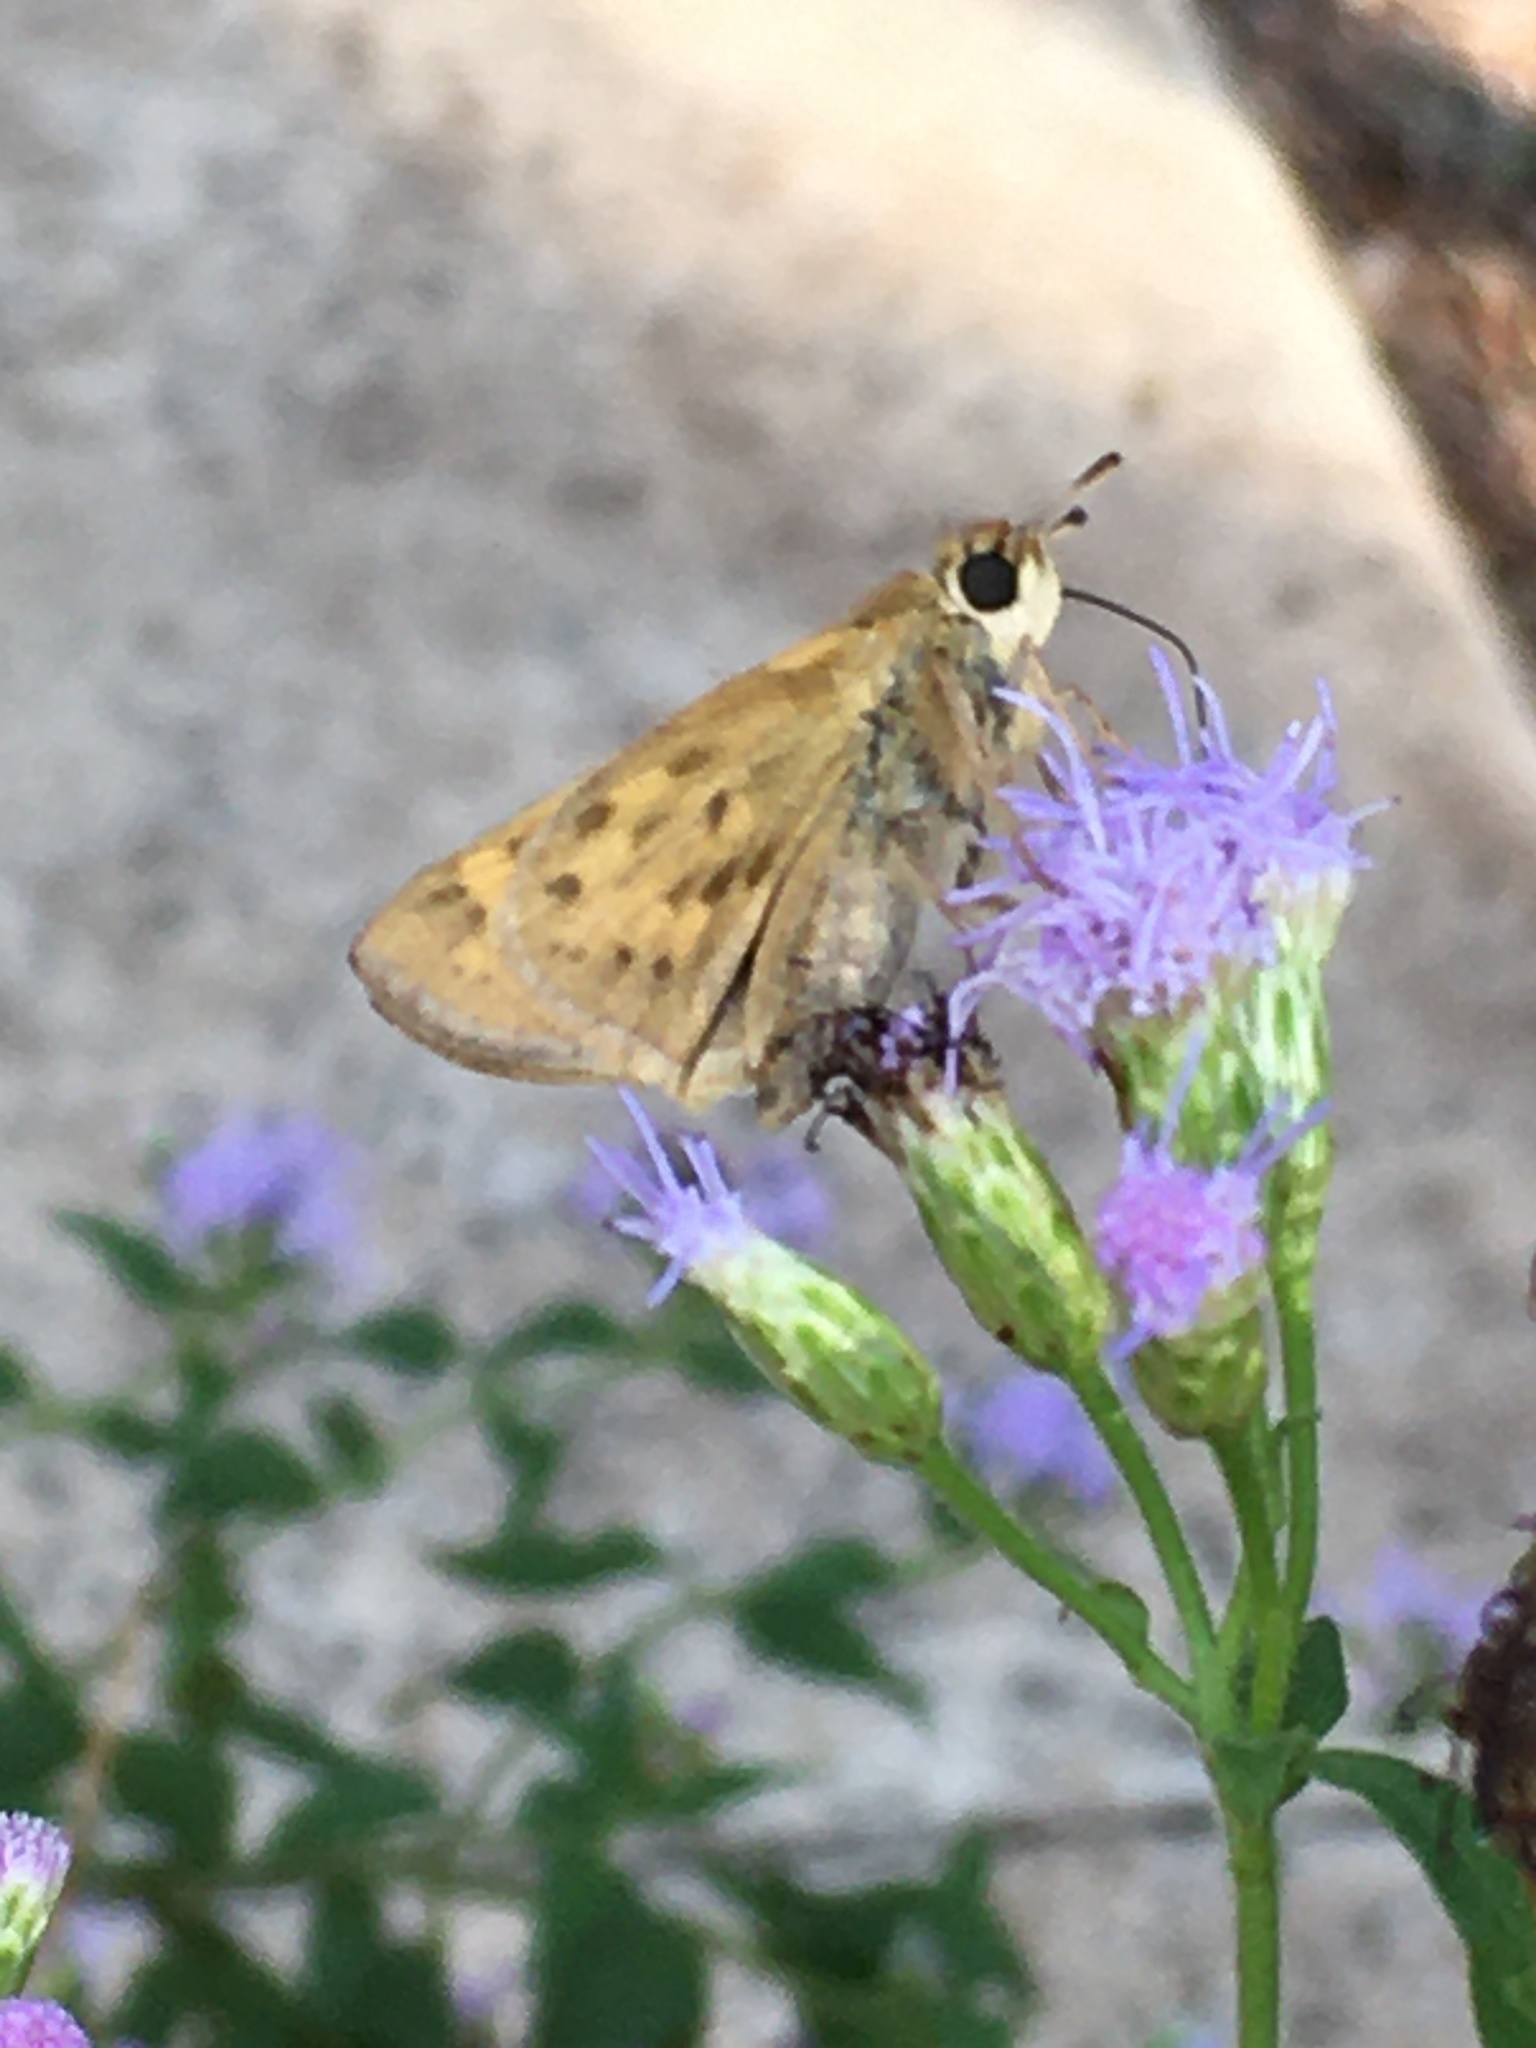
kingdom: Animalia
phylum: Arthropoda
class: Insecta
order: Lepidoptera
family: Hesperiidae
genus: Hylephila
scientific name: Hylephila phyleus
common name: Fiery skipper
